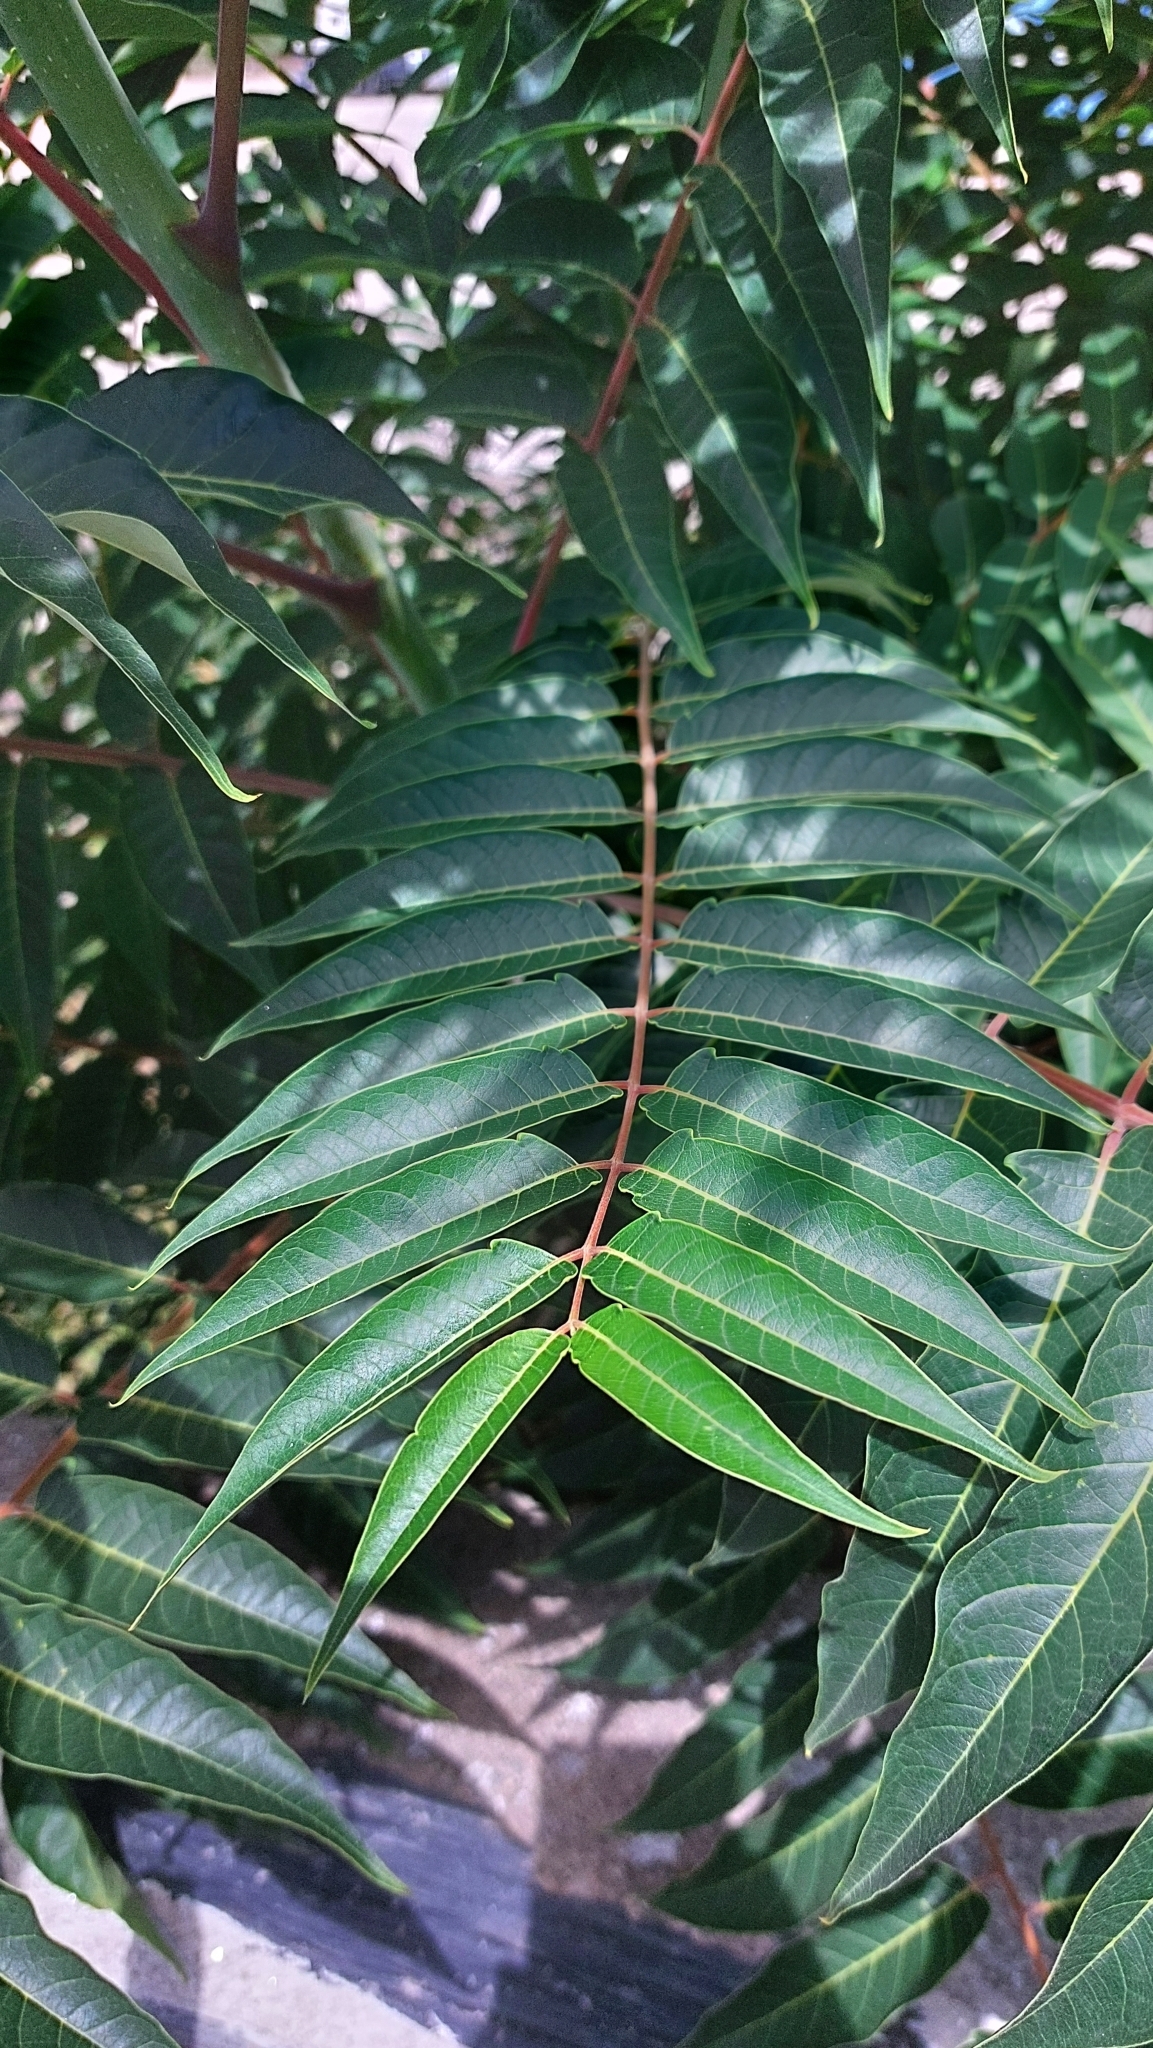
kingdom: Plantae
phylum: Tracheophyta
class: Magnoliopsida
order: Sapindales
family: Simaroubaceae
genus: Ailanthus
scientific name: Ailanthus altissima
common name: Tree-of-heaven
